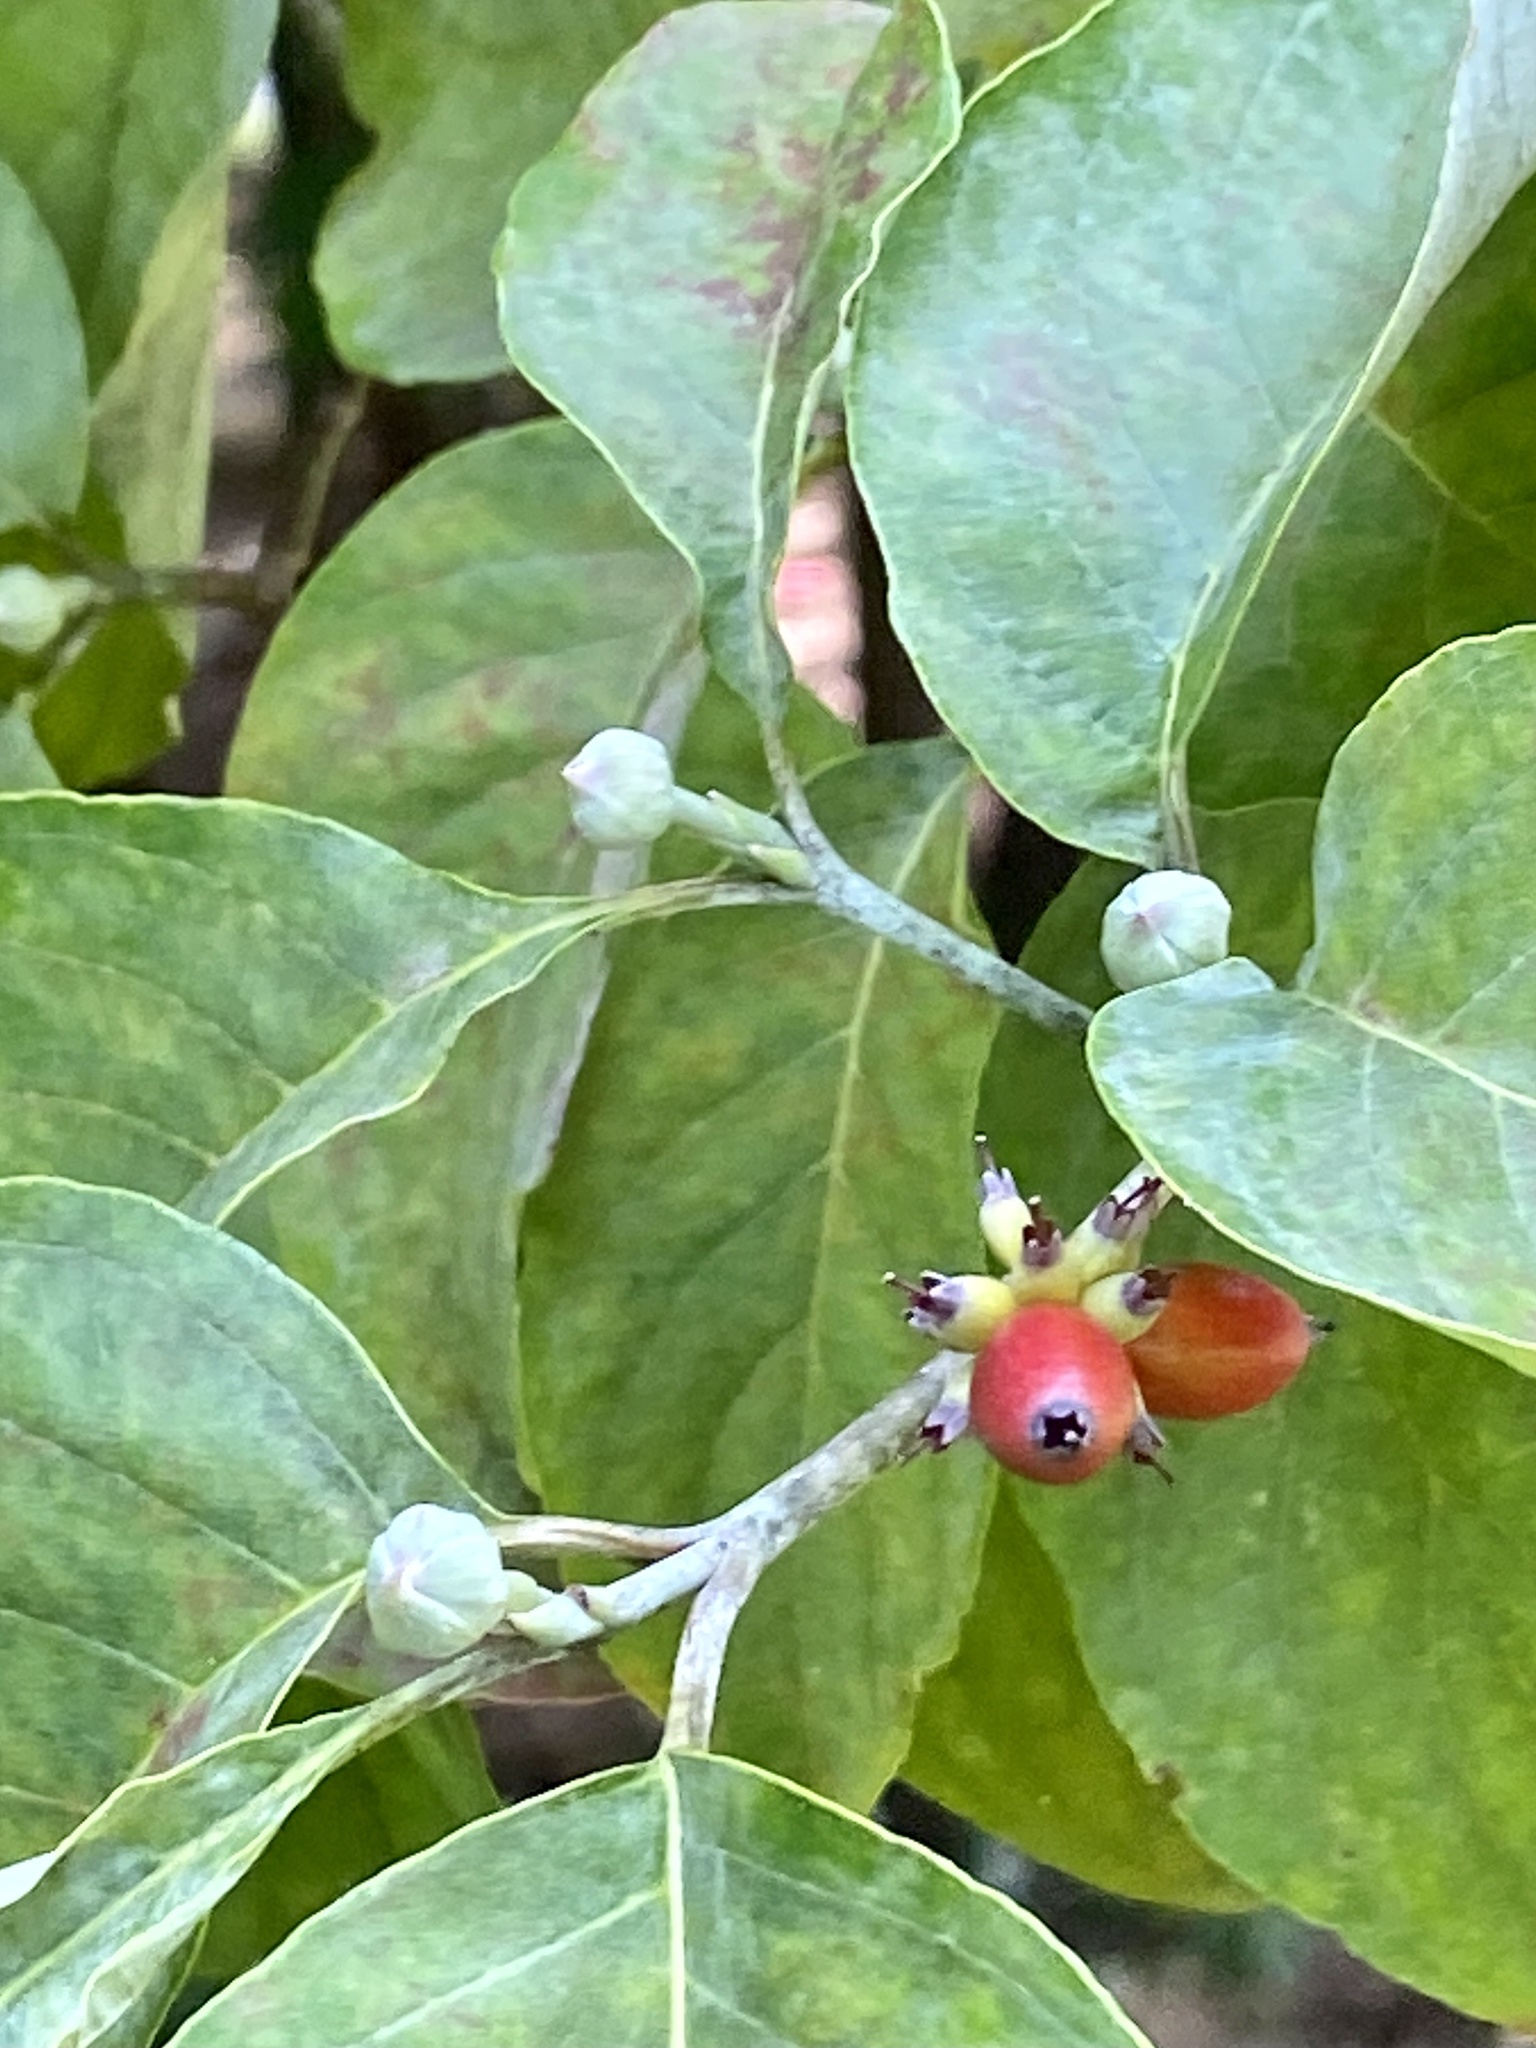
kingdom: Plantae
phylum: Tracheophyta
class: Magnoliopsida
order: Cornales
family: Cornaceae
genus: Cornus
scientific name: Cornus florida
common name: Flowering dogwood
